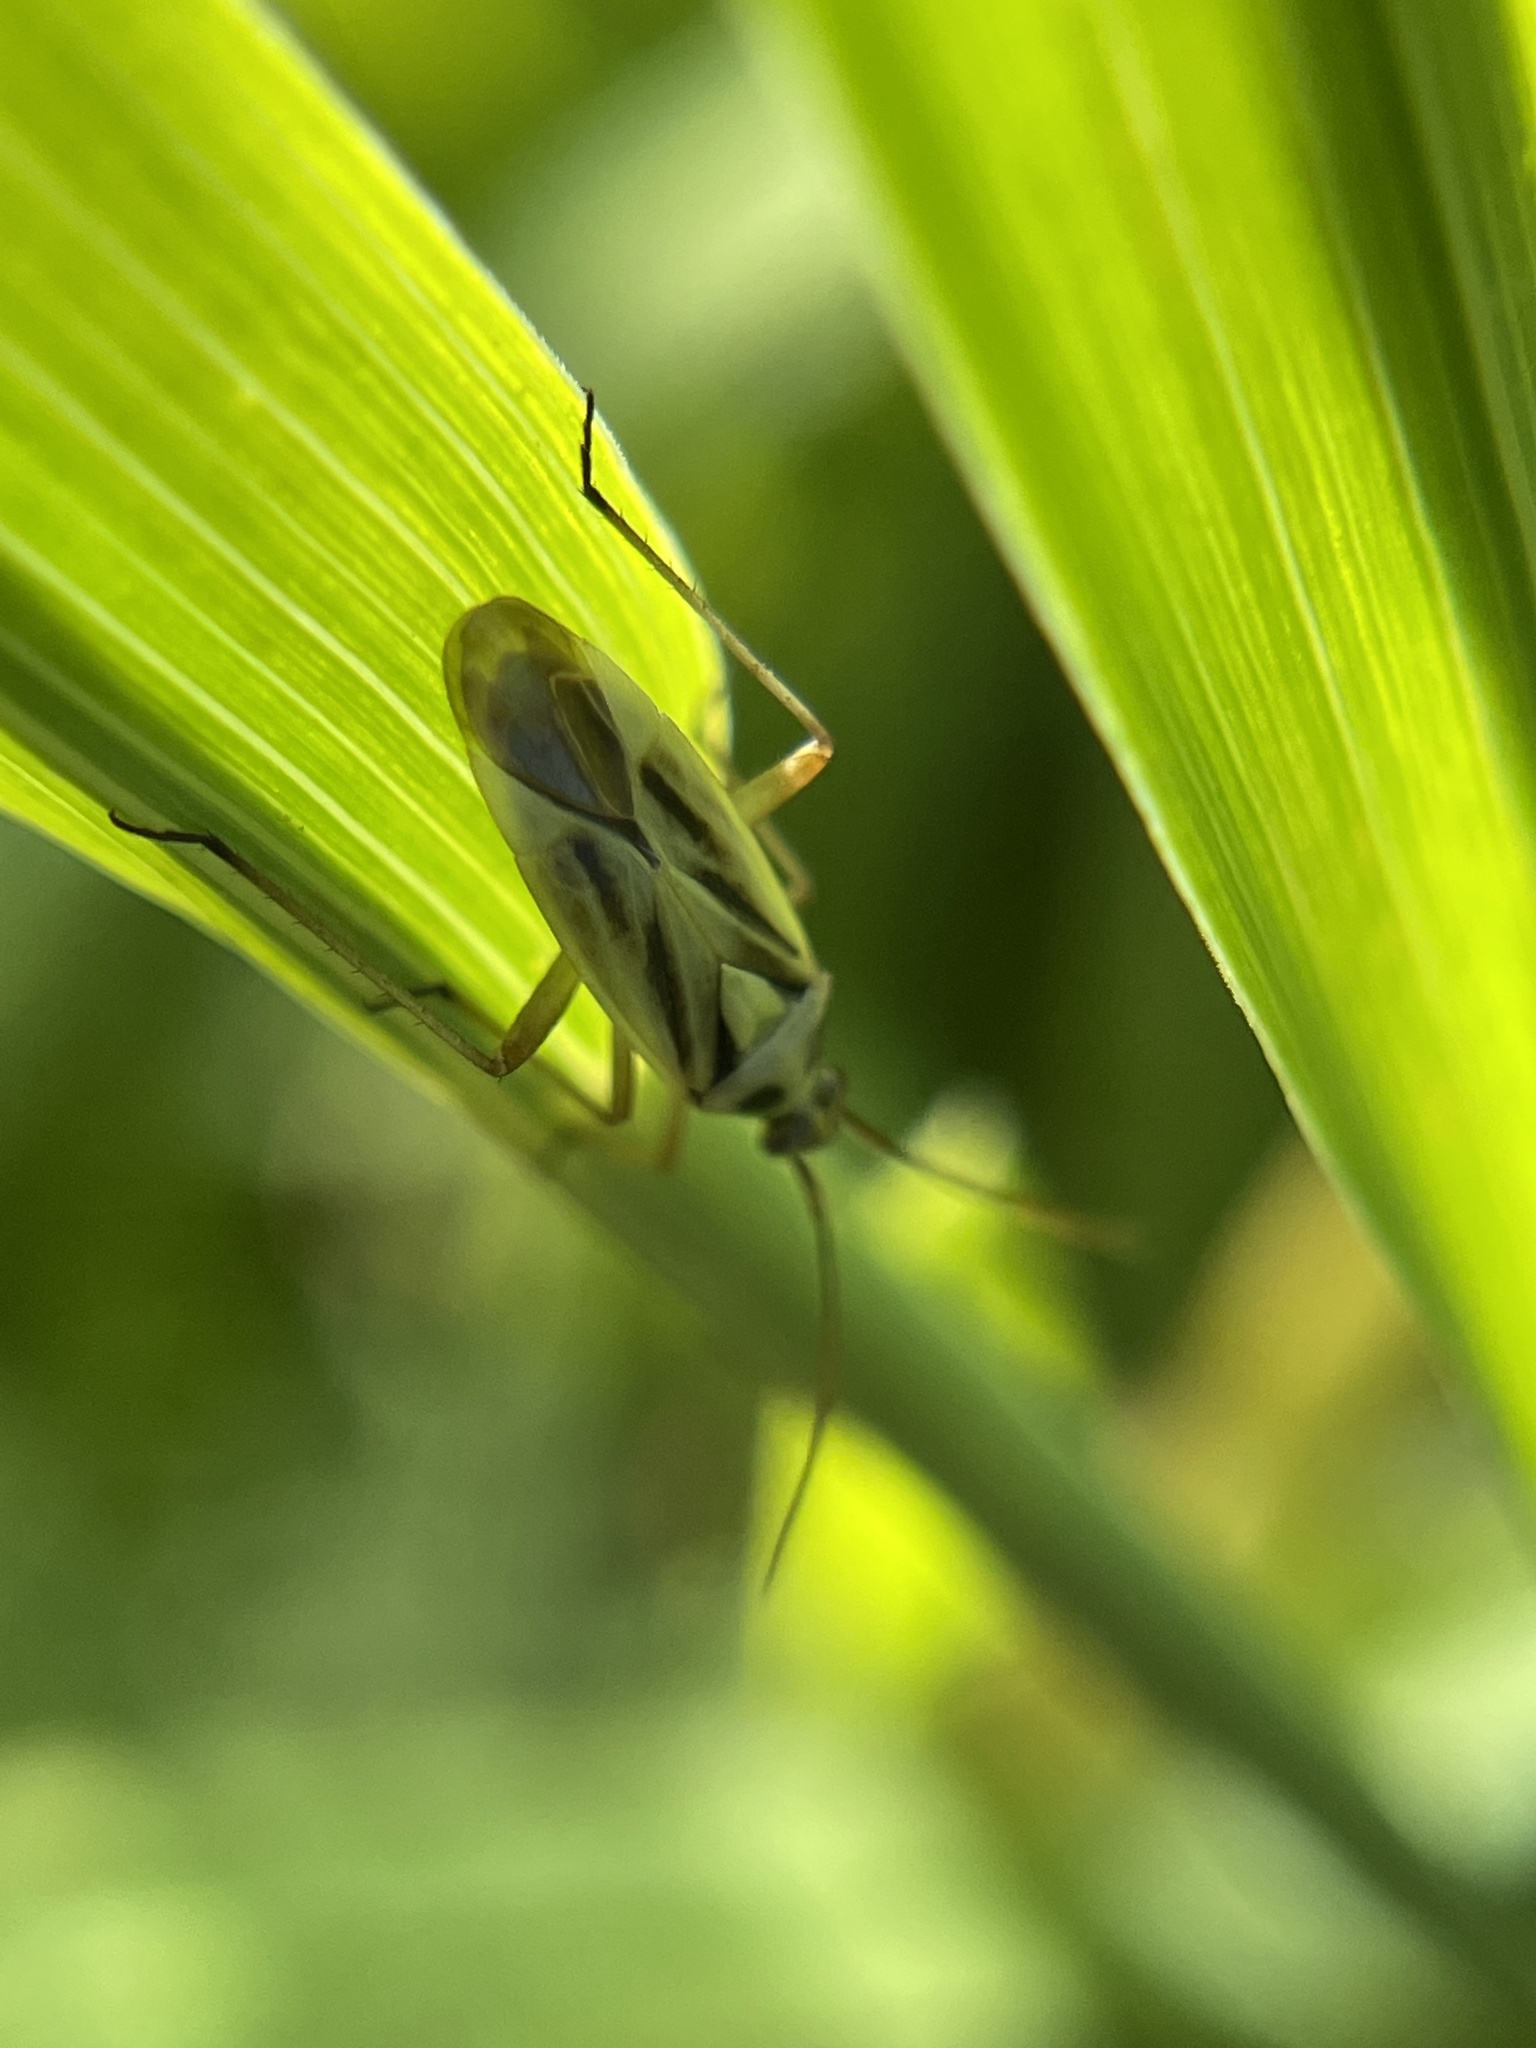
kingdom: Animalia
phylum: Arthropoda
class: Insecta
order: Hemiptera
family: Miridae
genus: Stenotus
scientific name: Stenotus binotatus
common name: Plant bug
